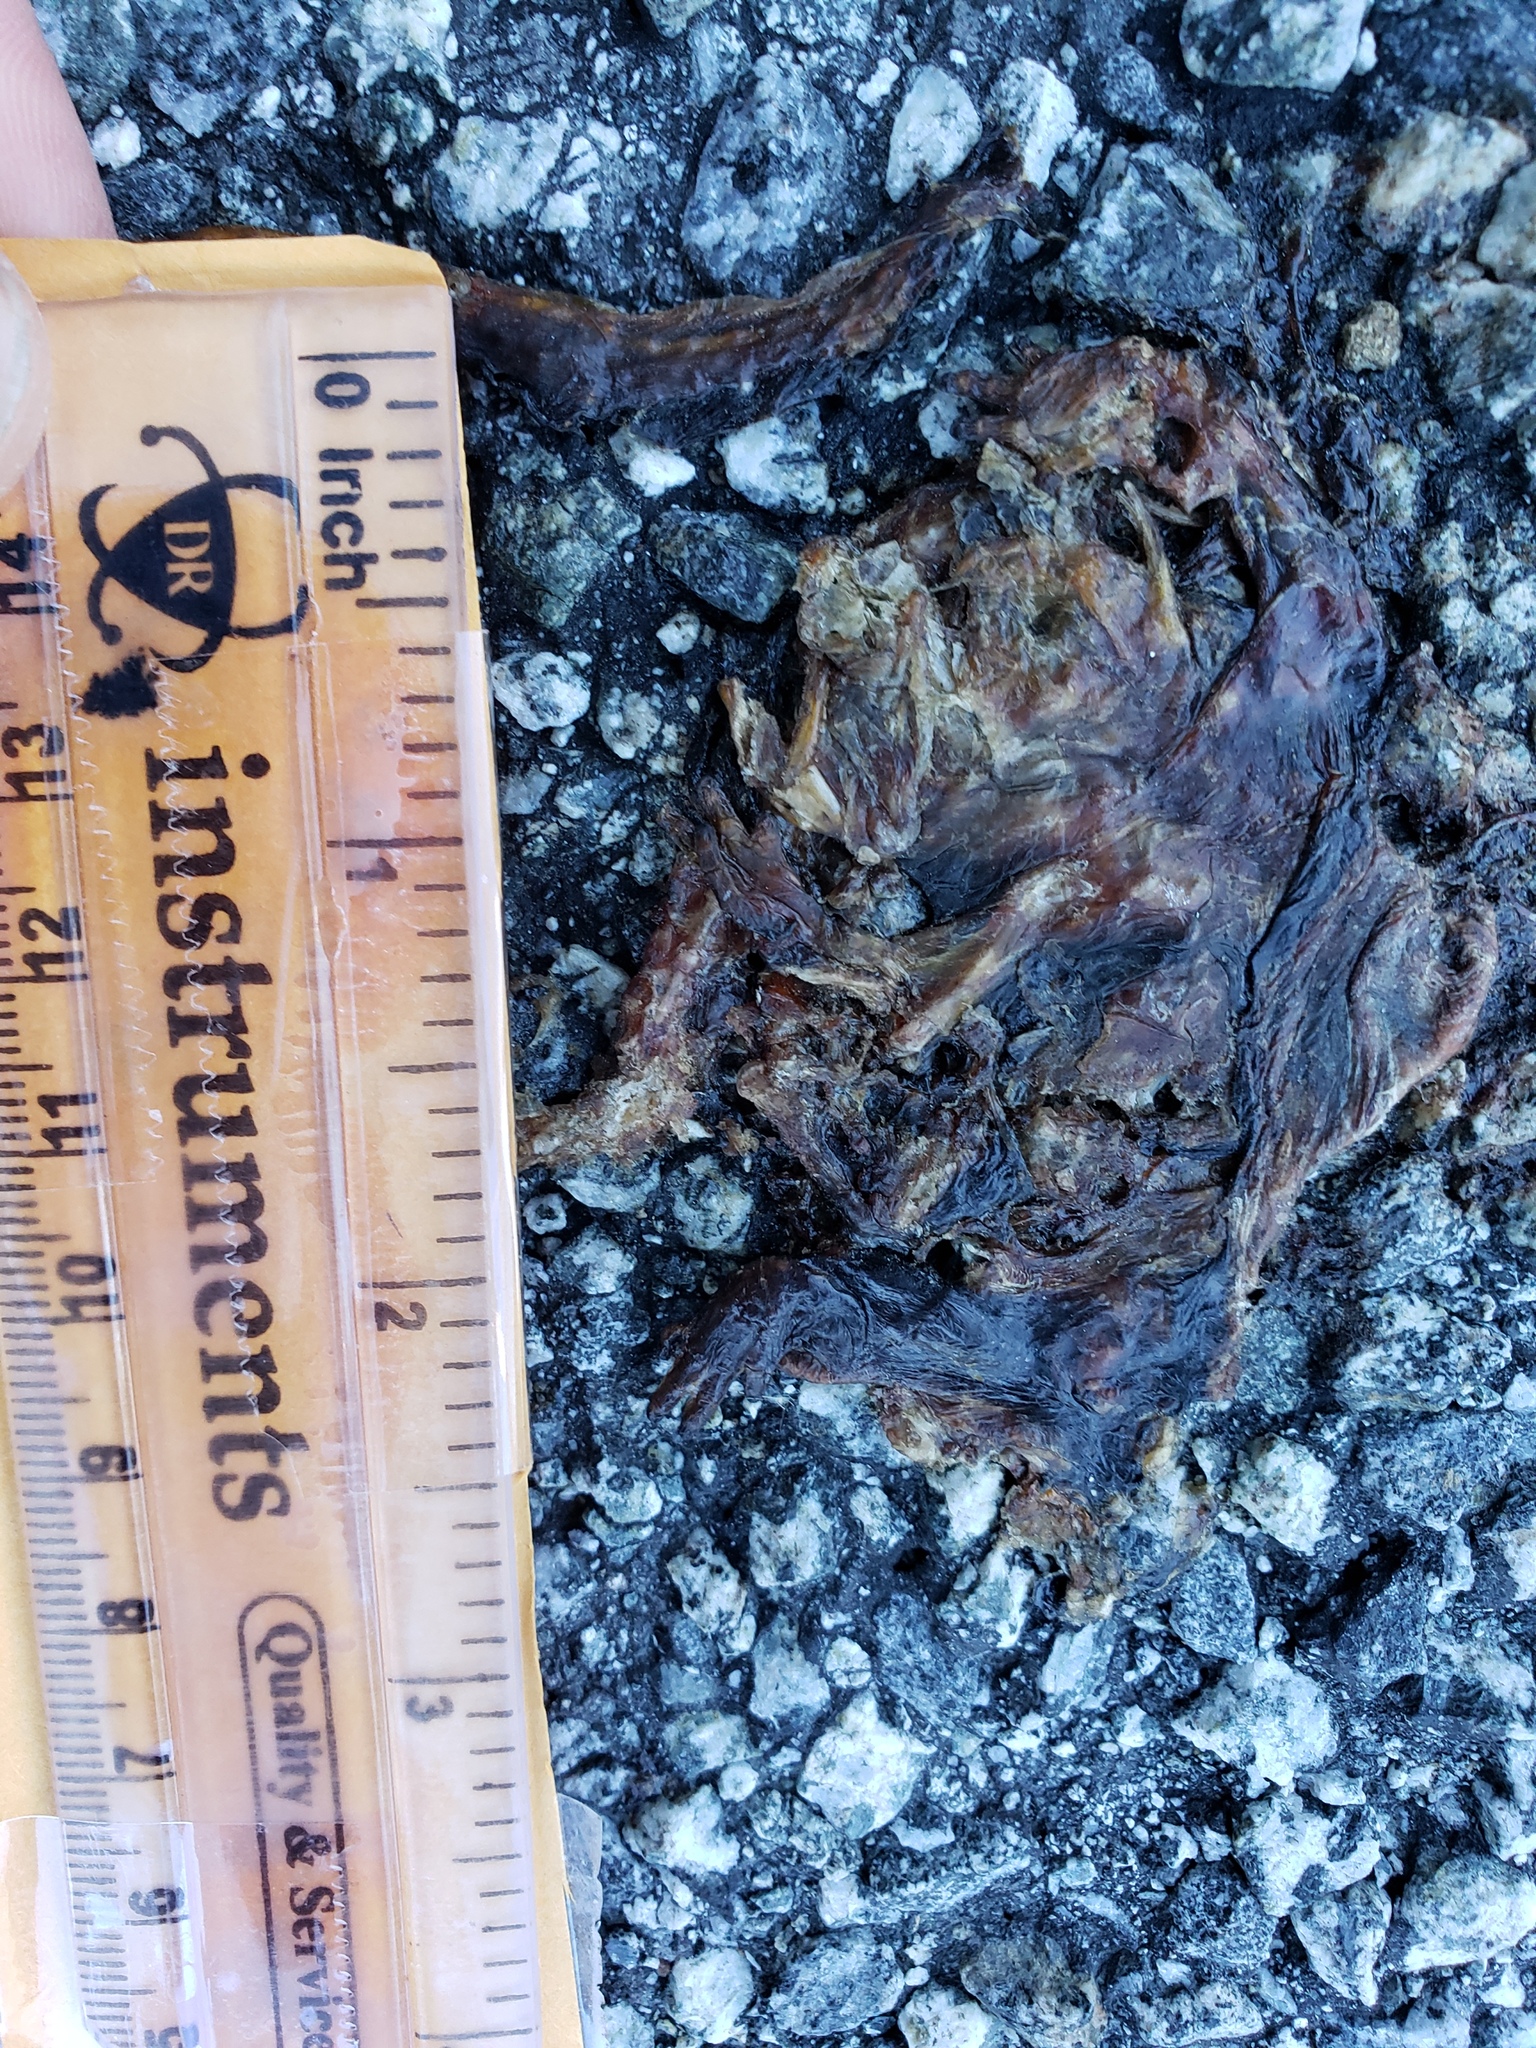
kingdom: Animalia
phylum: Chordata
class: Amphibia
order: Caudata
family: Salamandridae
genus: Taricha
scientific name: Taricha
